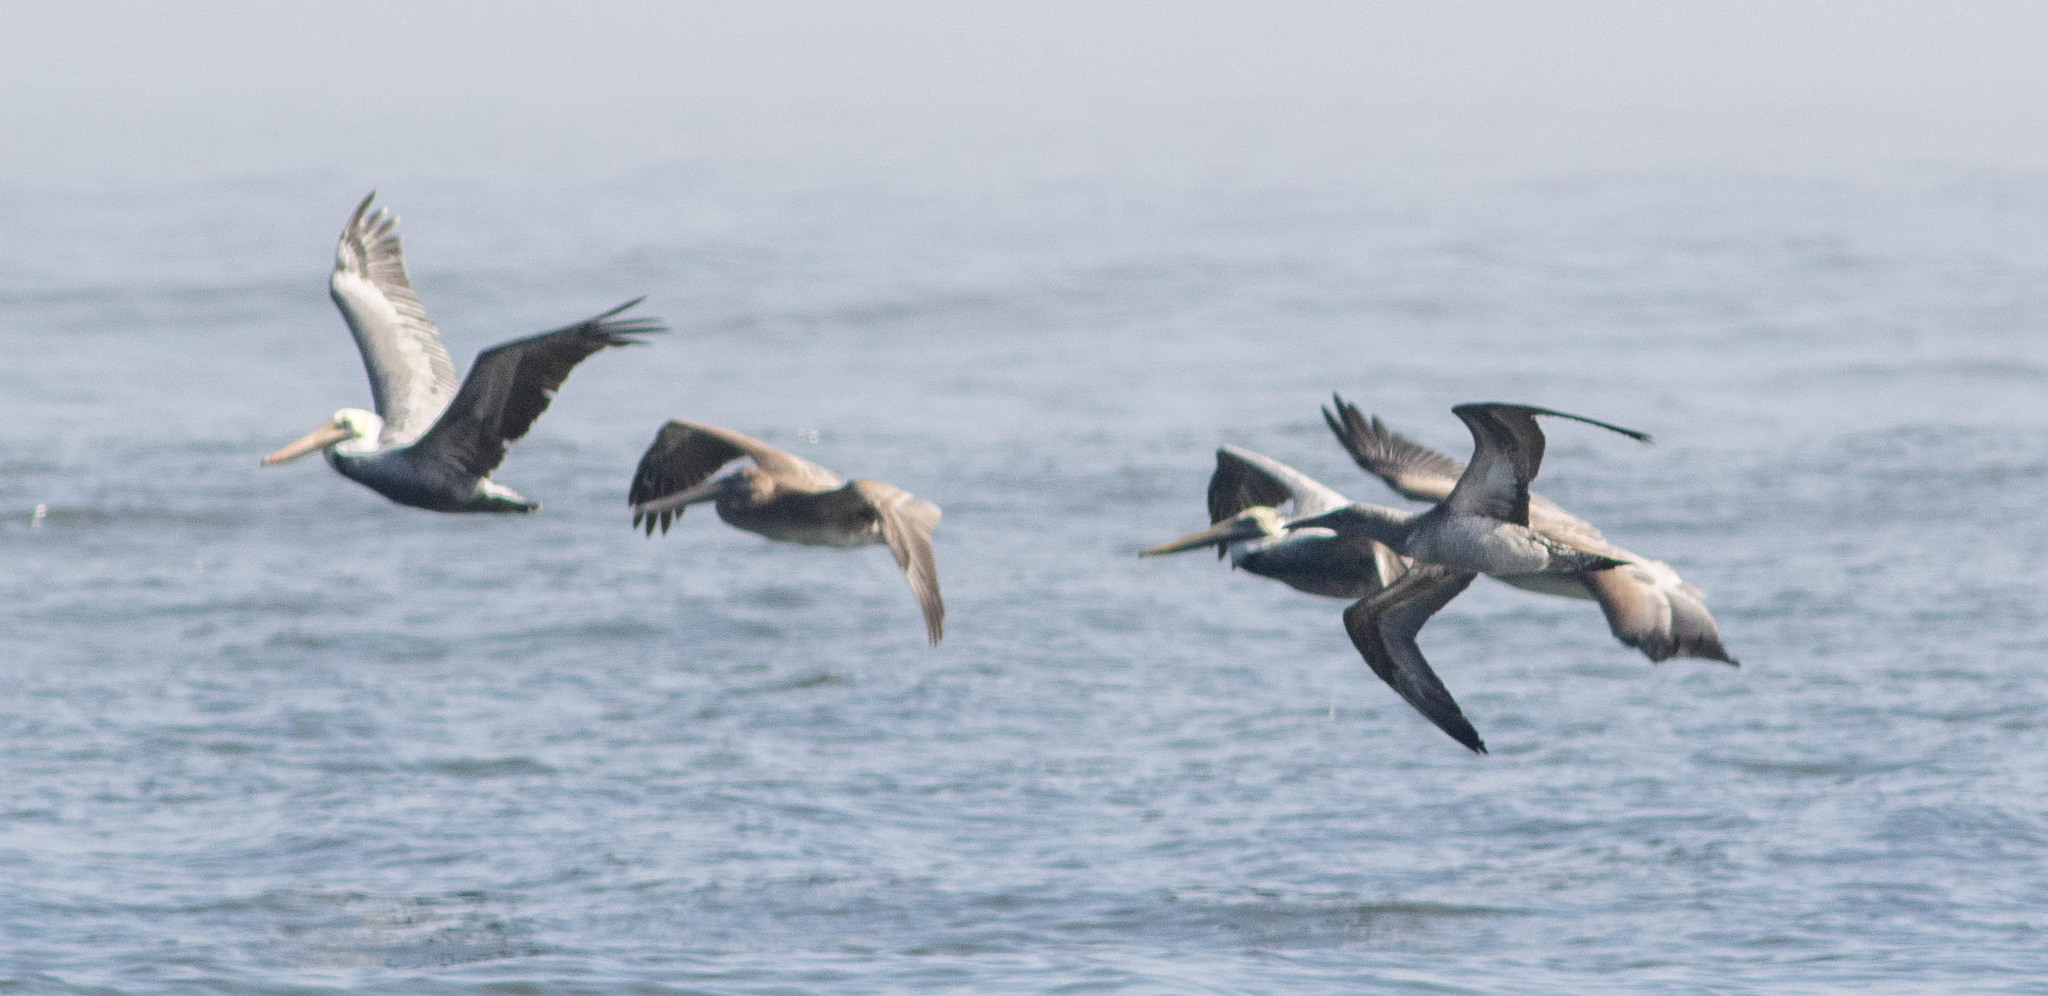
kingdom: Animalia
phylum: Chordata
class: Aves
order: Pelecaniformes
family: Pelecanidae
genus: Pelecanus
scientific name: Pelecanus occidentalis
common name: Brown pelican
